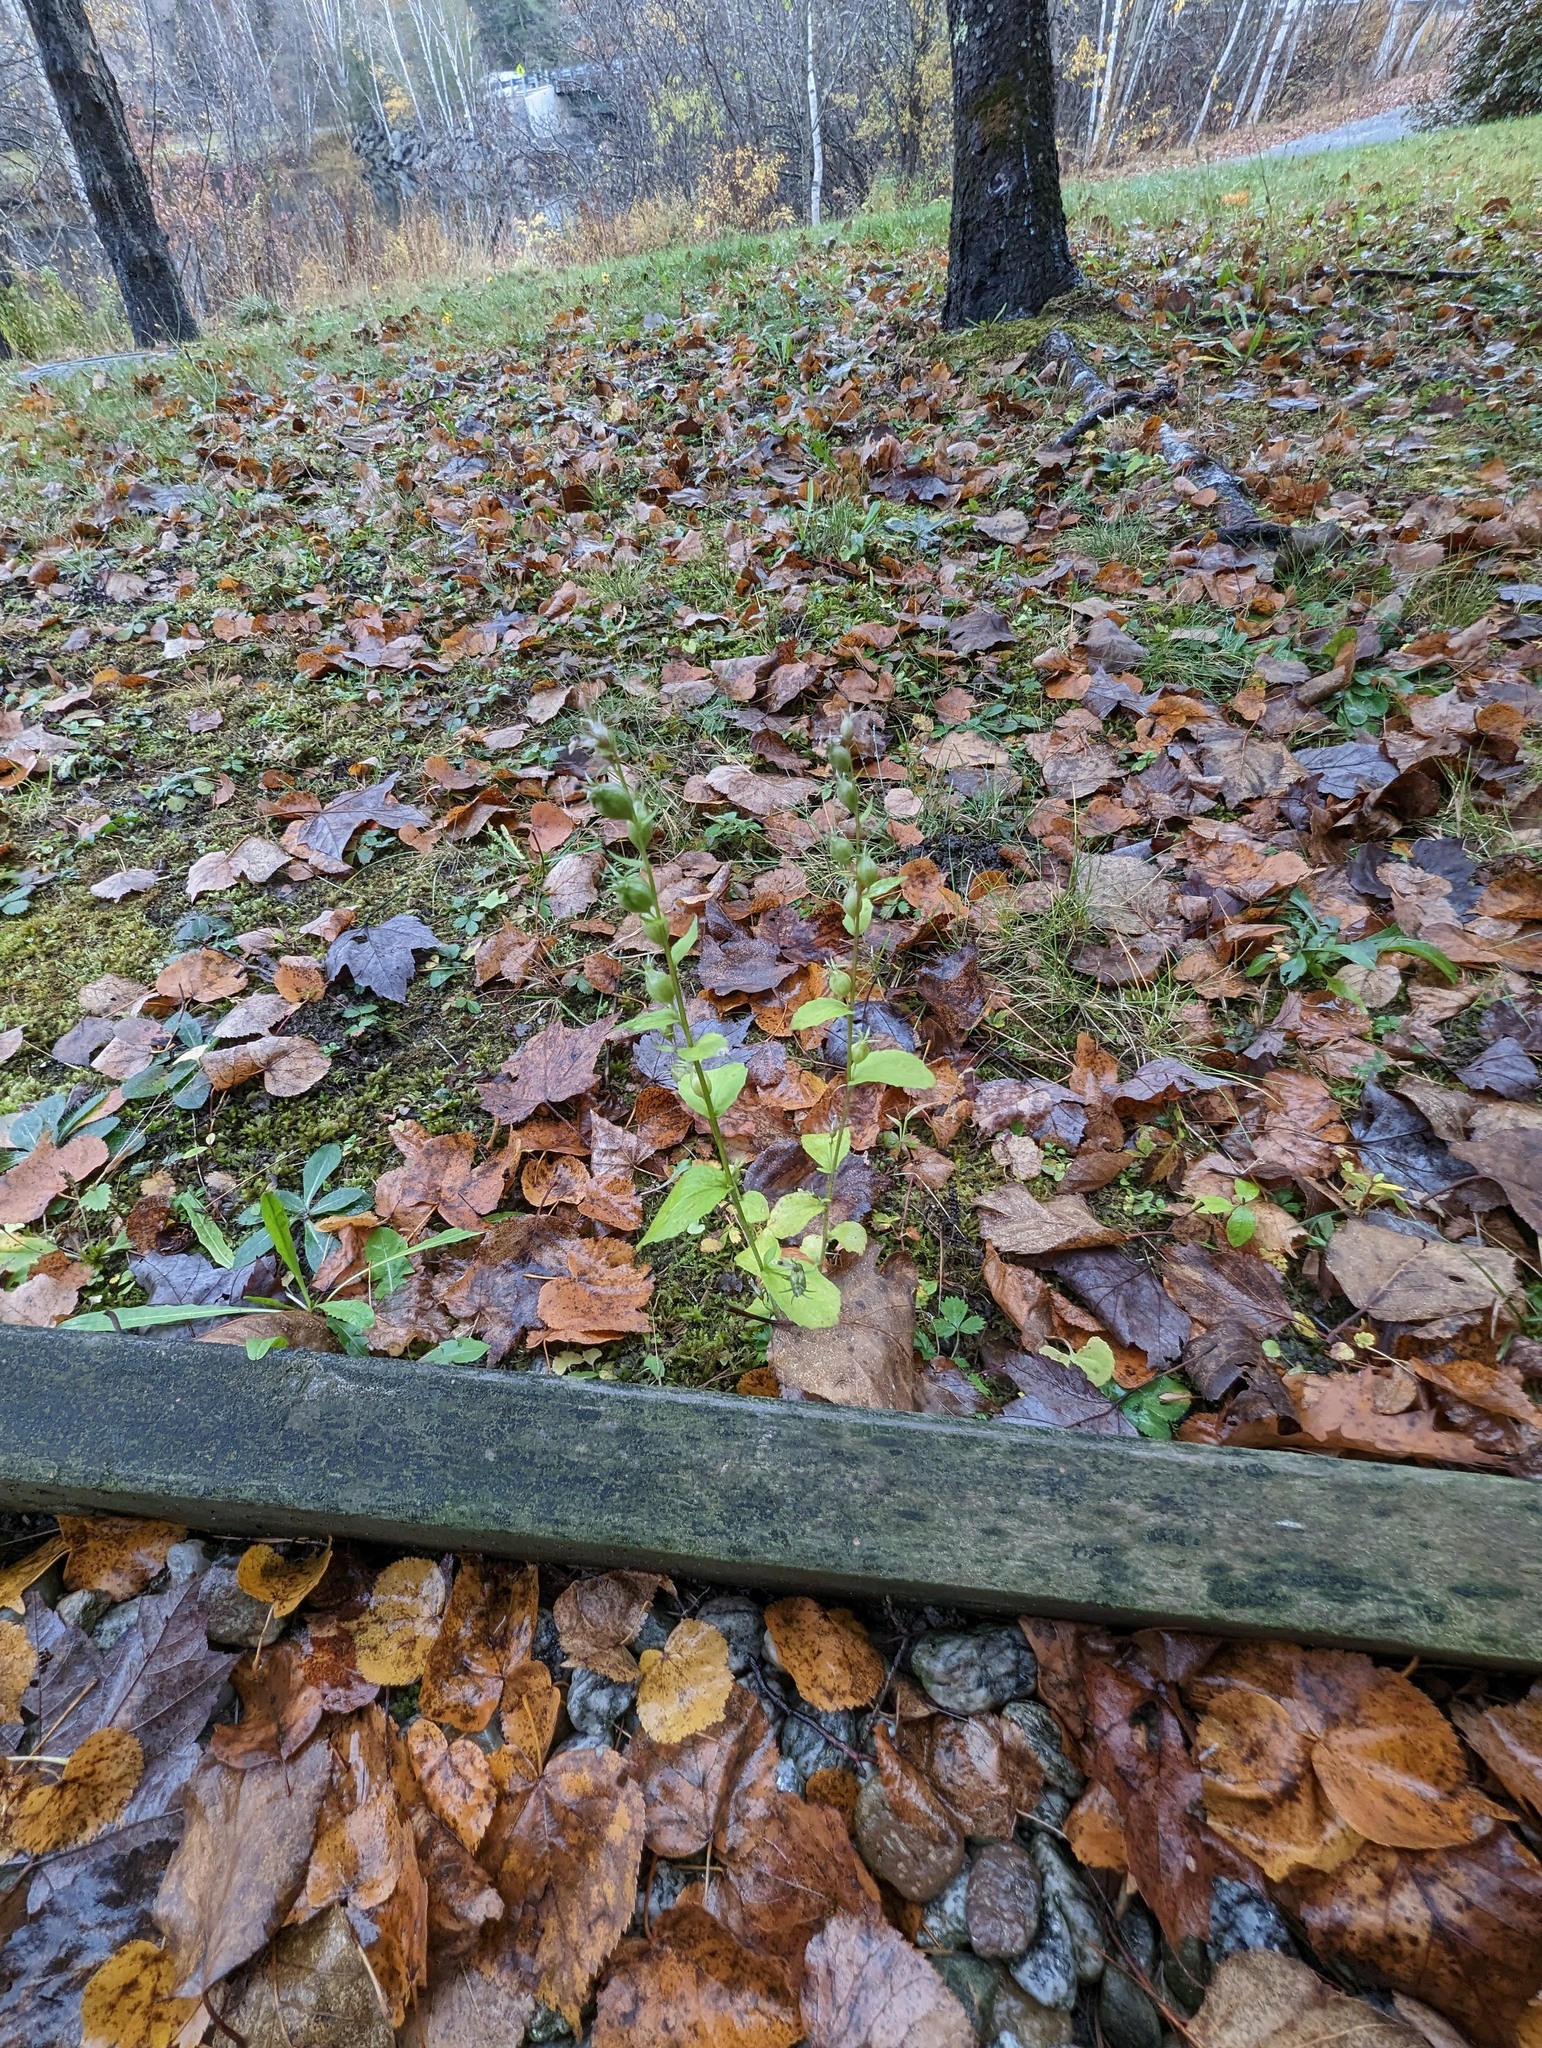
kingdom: Plantae
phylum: Tracheophyta
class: Magnoliopsida
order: Asterales
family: Campanulaceae
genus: Lobelia
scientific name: Lobelia inflata
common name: Indian tobacco
